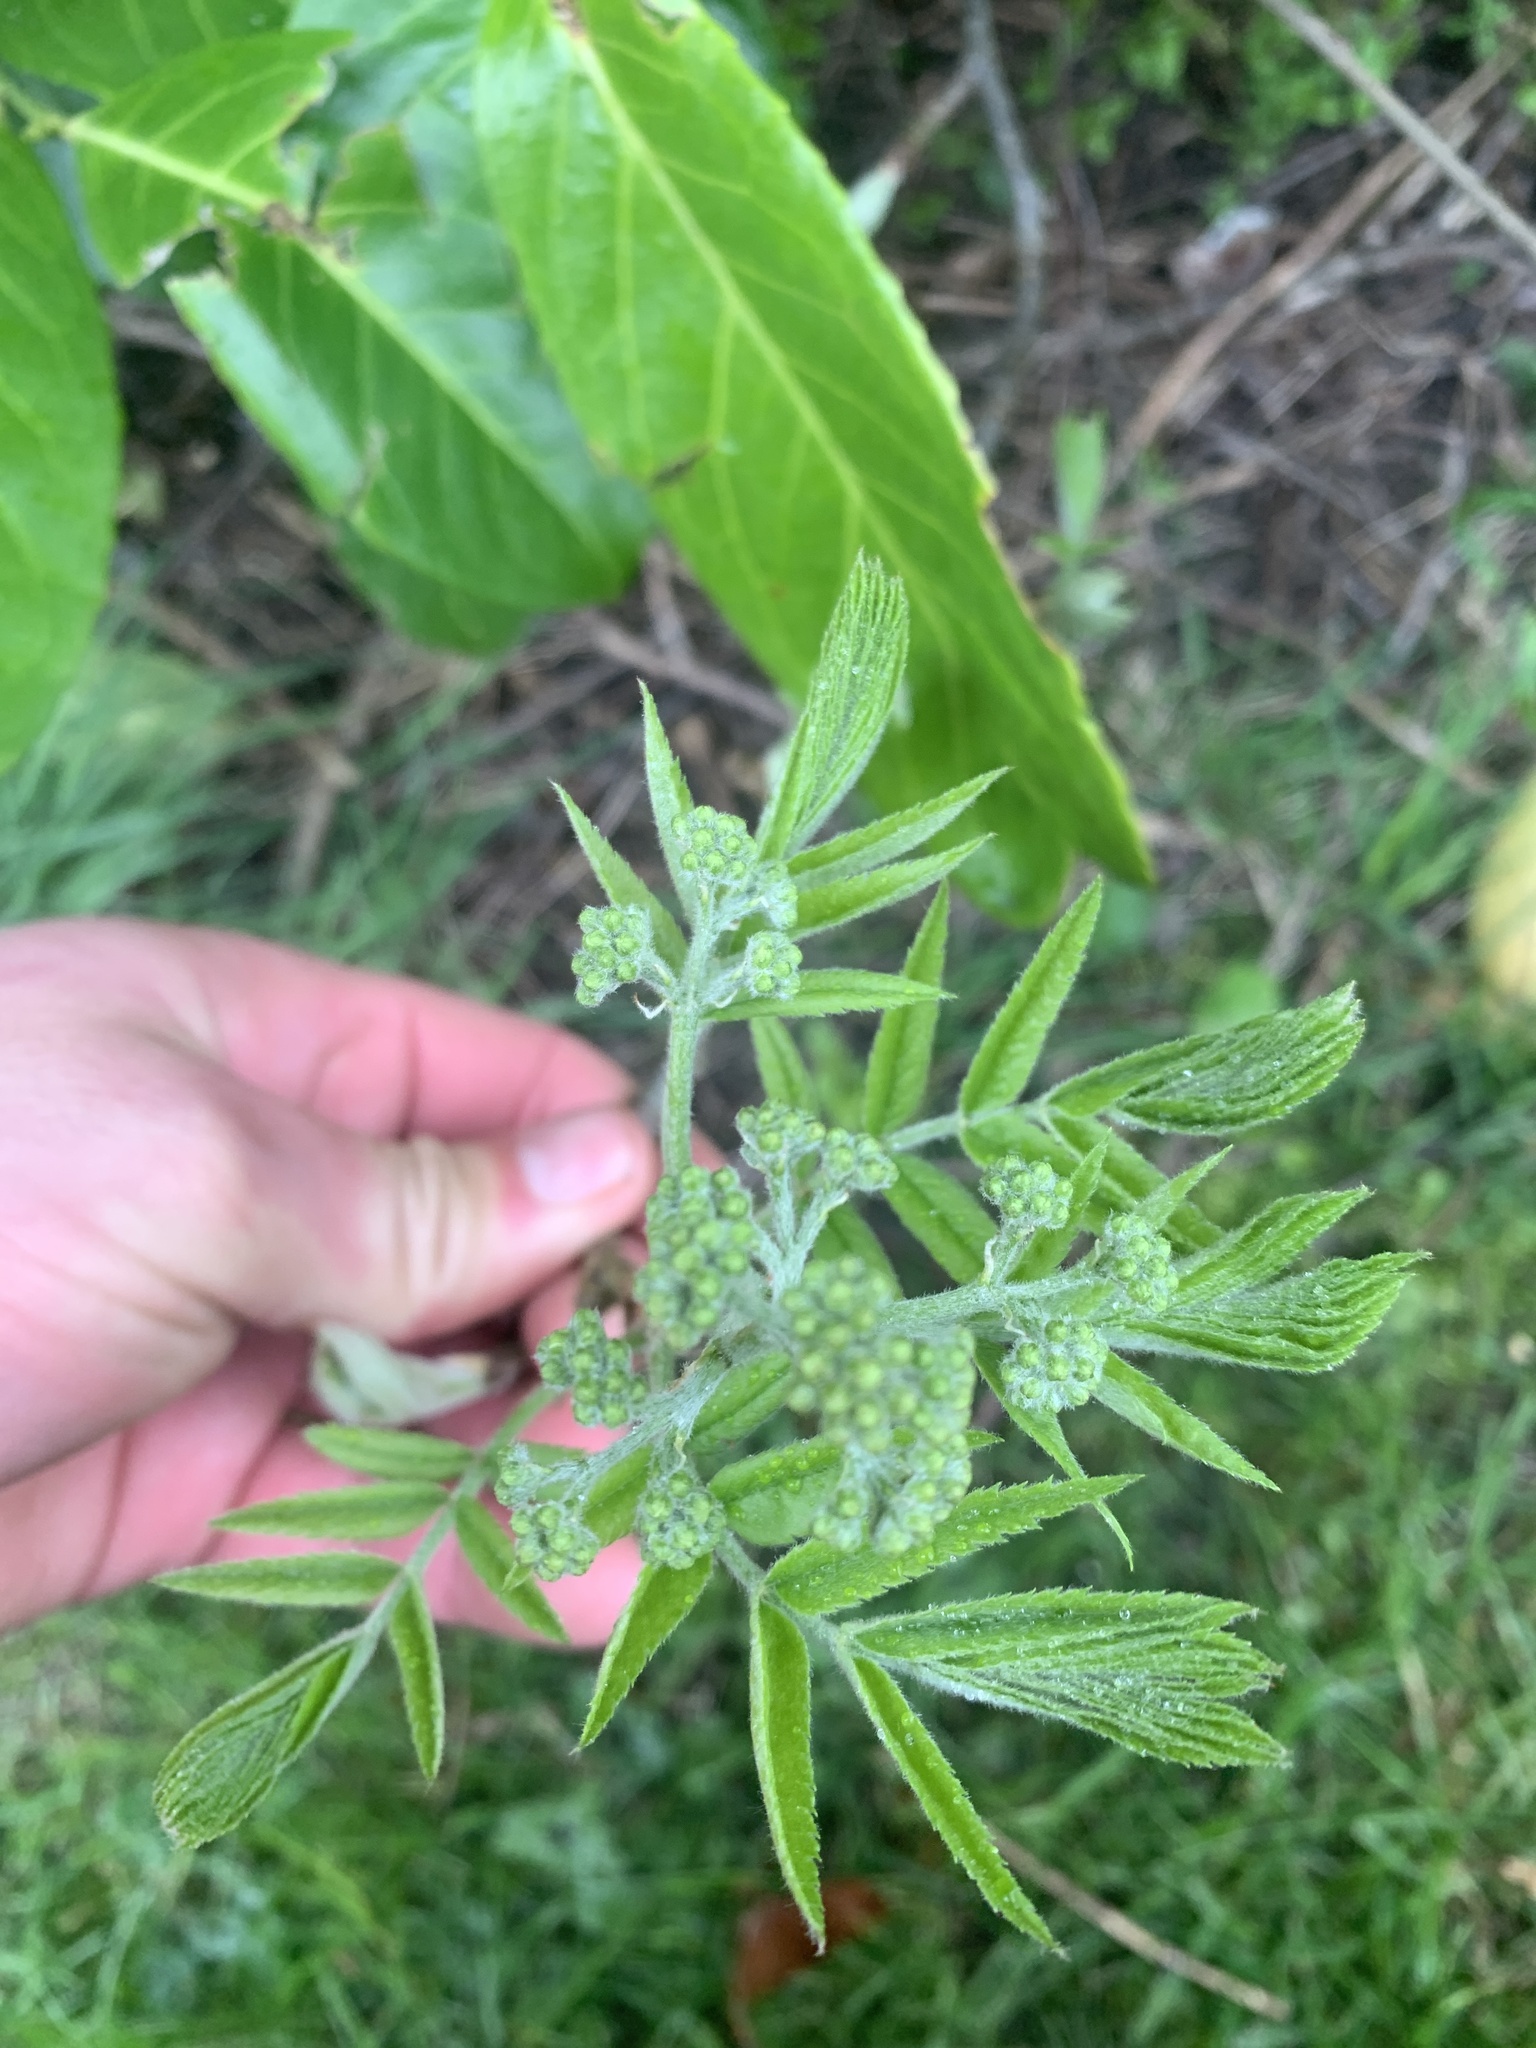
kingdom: Plantae
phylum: Tracheophyta
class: Magnoliopsida
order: Dipsacales
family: Viburnaceae
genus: Sambucus
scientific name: Sambucus nigra
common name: Elder
